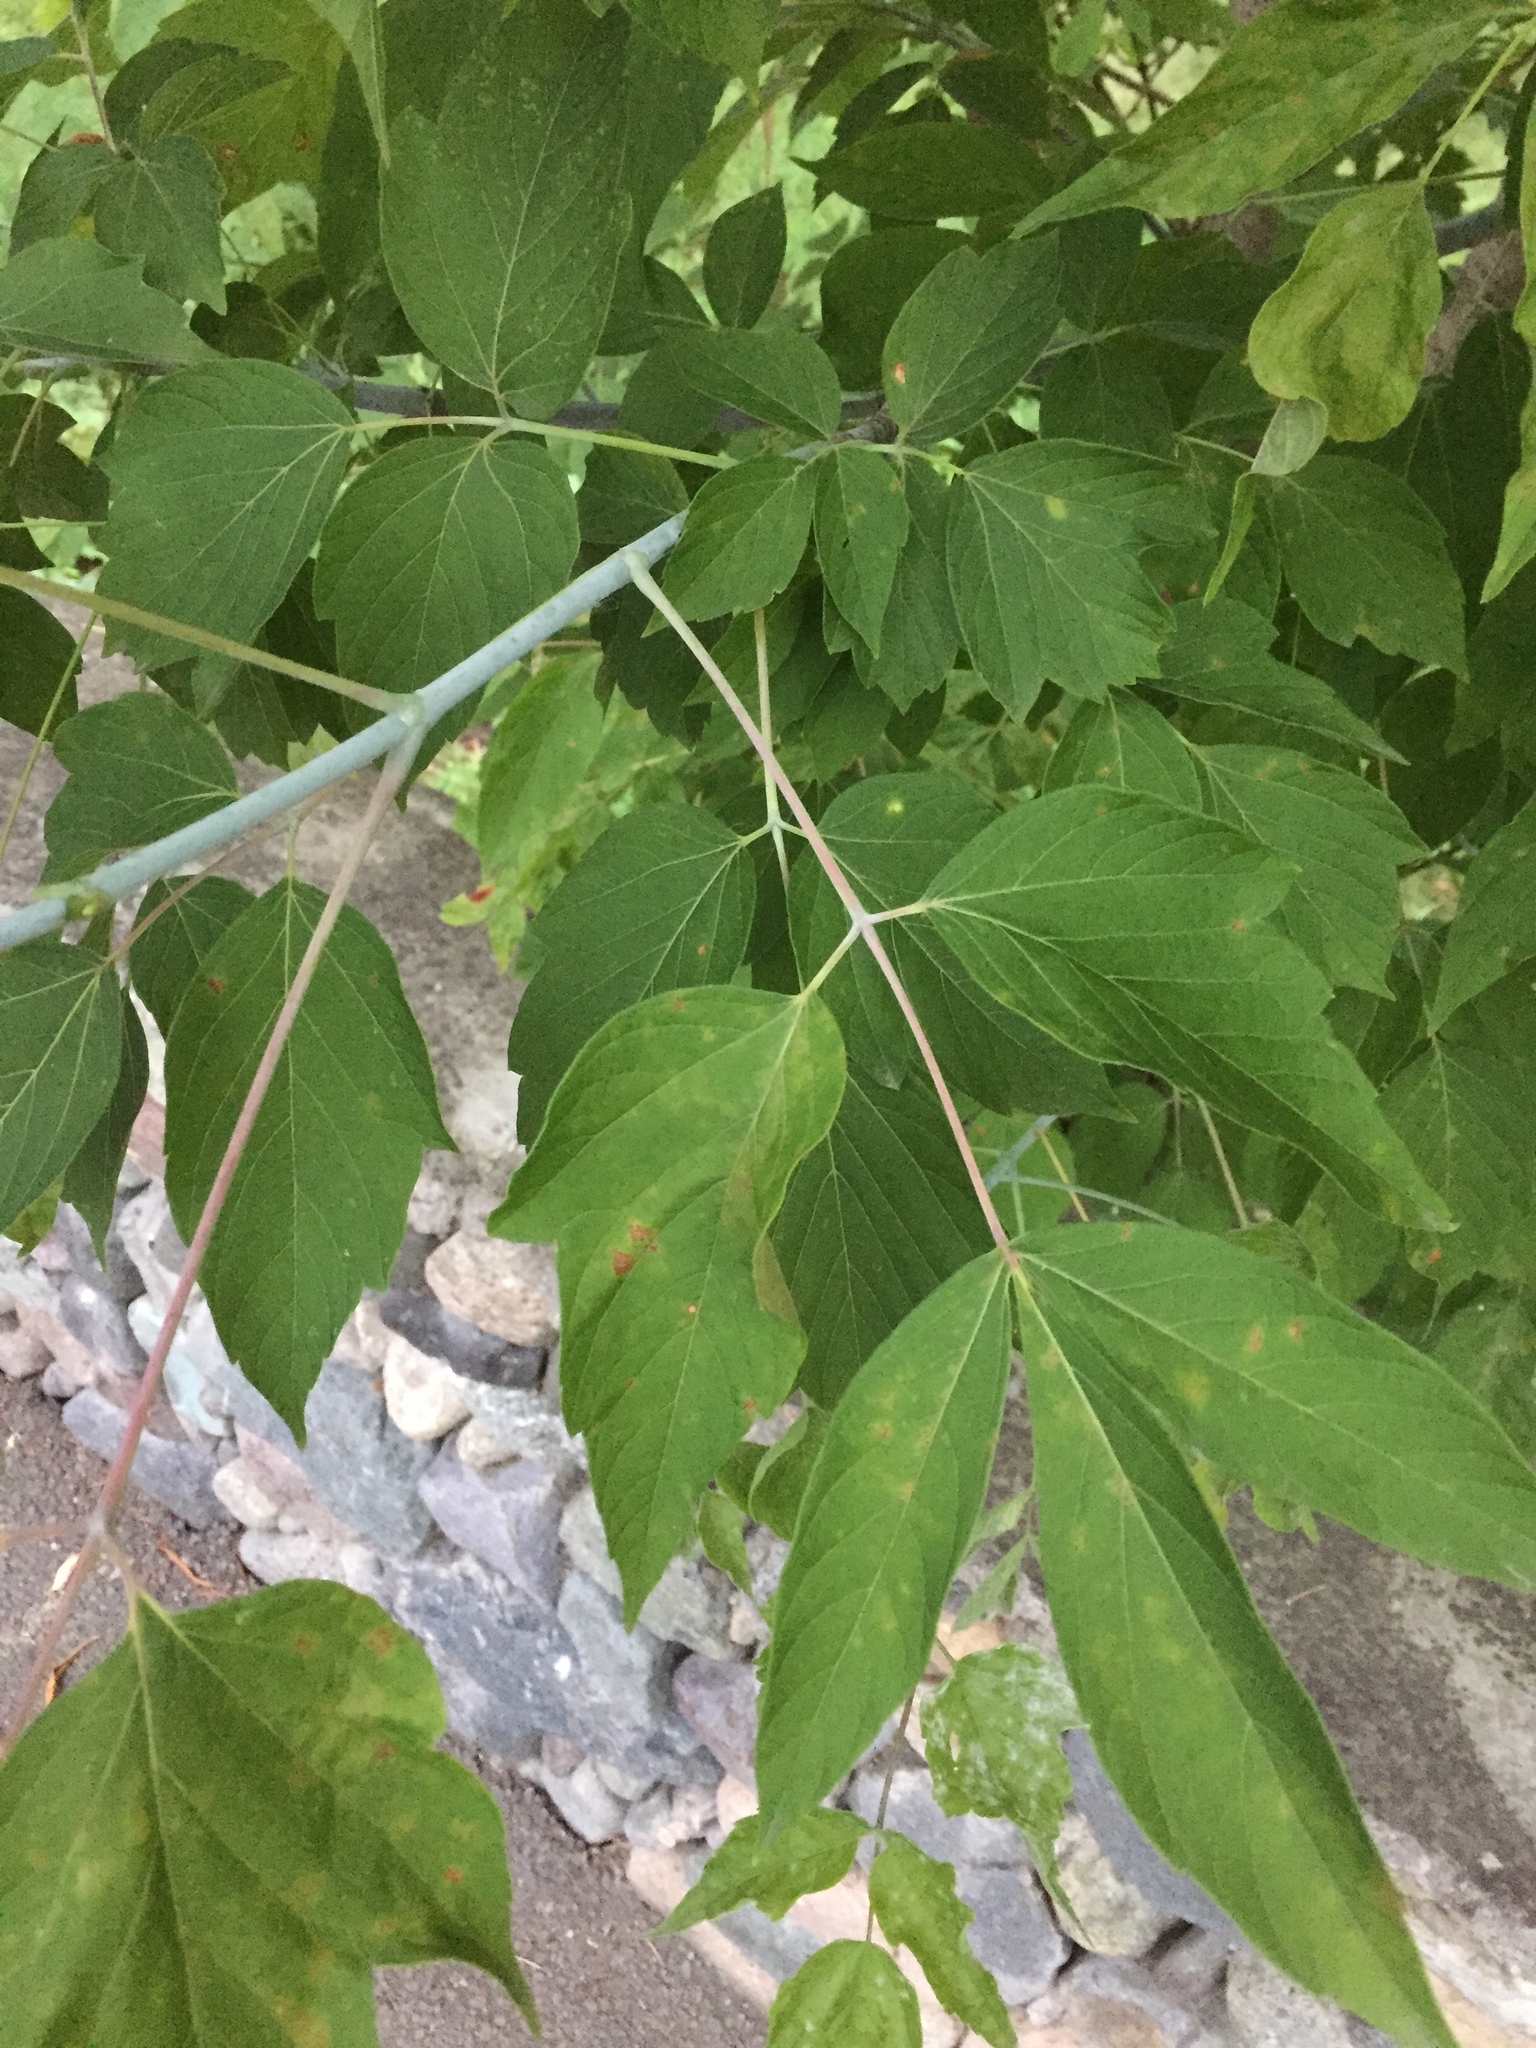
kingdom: Plantae
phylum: Tracheophyta
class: Magnoliopsida
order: Sapindales
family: Sapindaceae
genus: Acer
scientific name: Acer negundo
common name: Ashleaf maple
